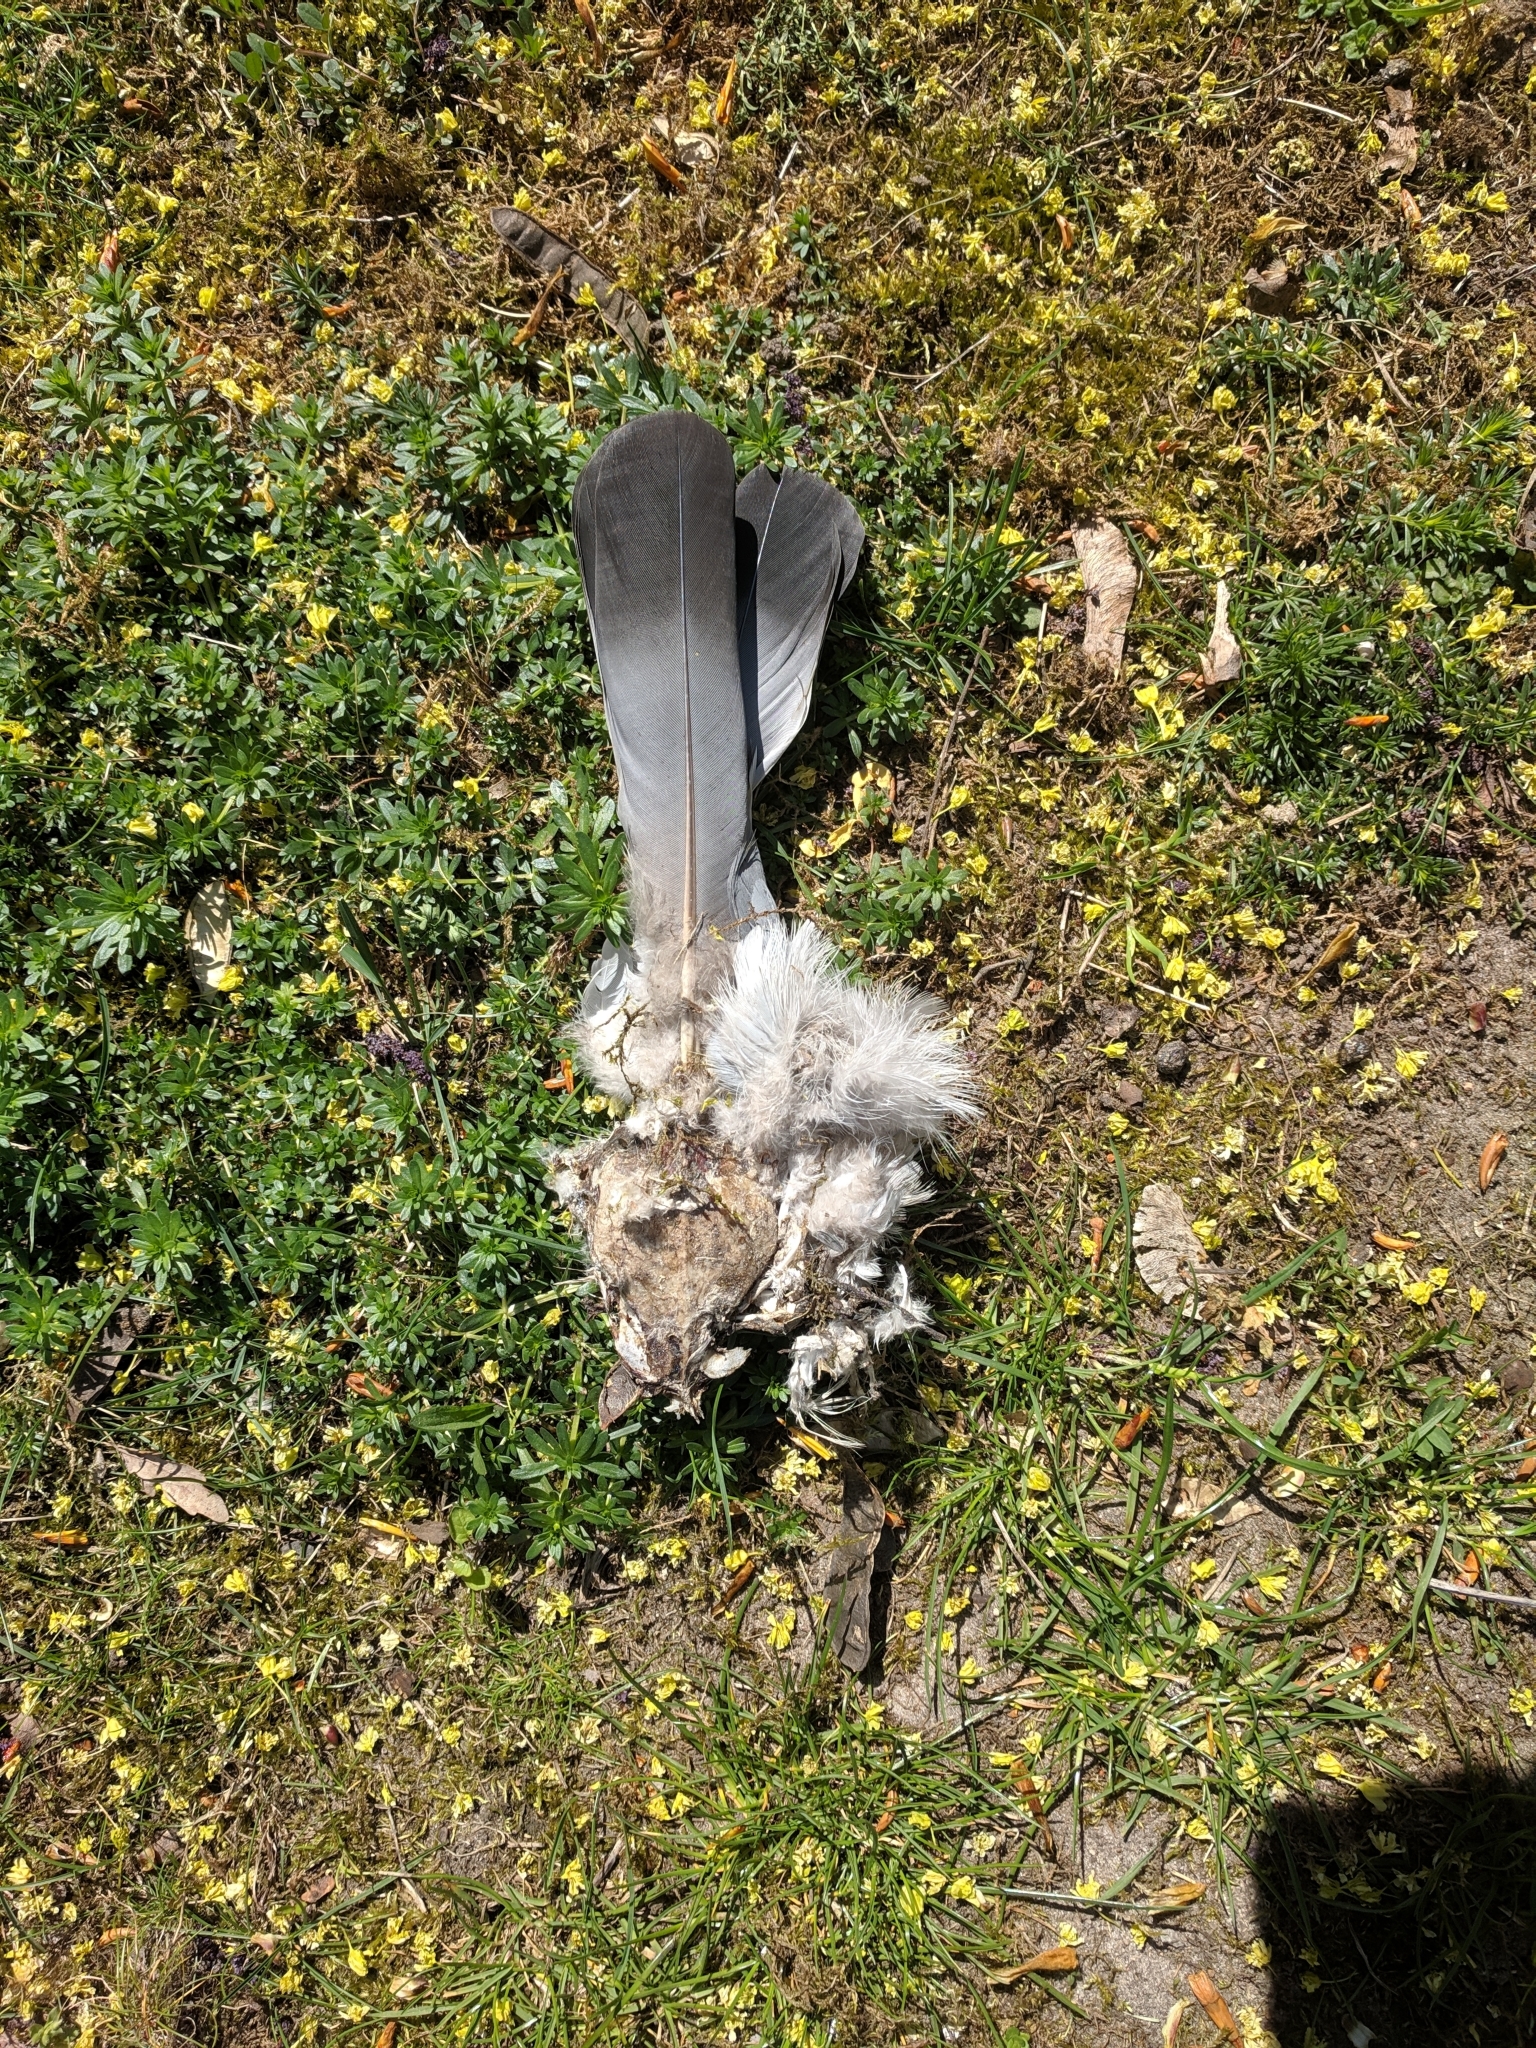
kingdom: Animalia
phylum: Chordata
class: Aves
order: Columbiformes
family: Columbidae
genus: Columba
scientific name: Columba palumbus
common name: Common wood pigeon
